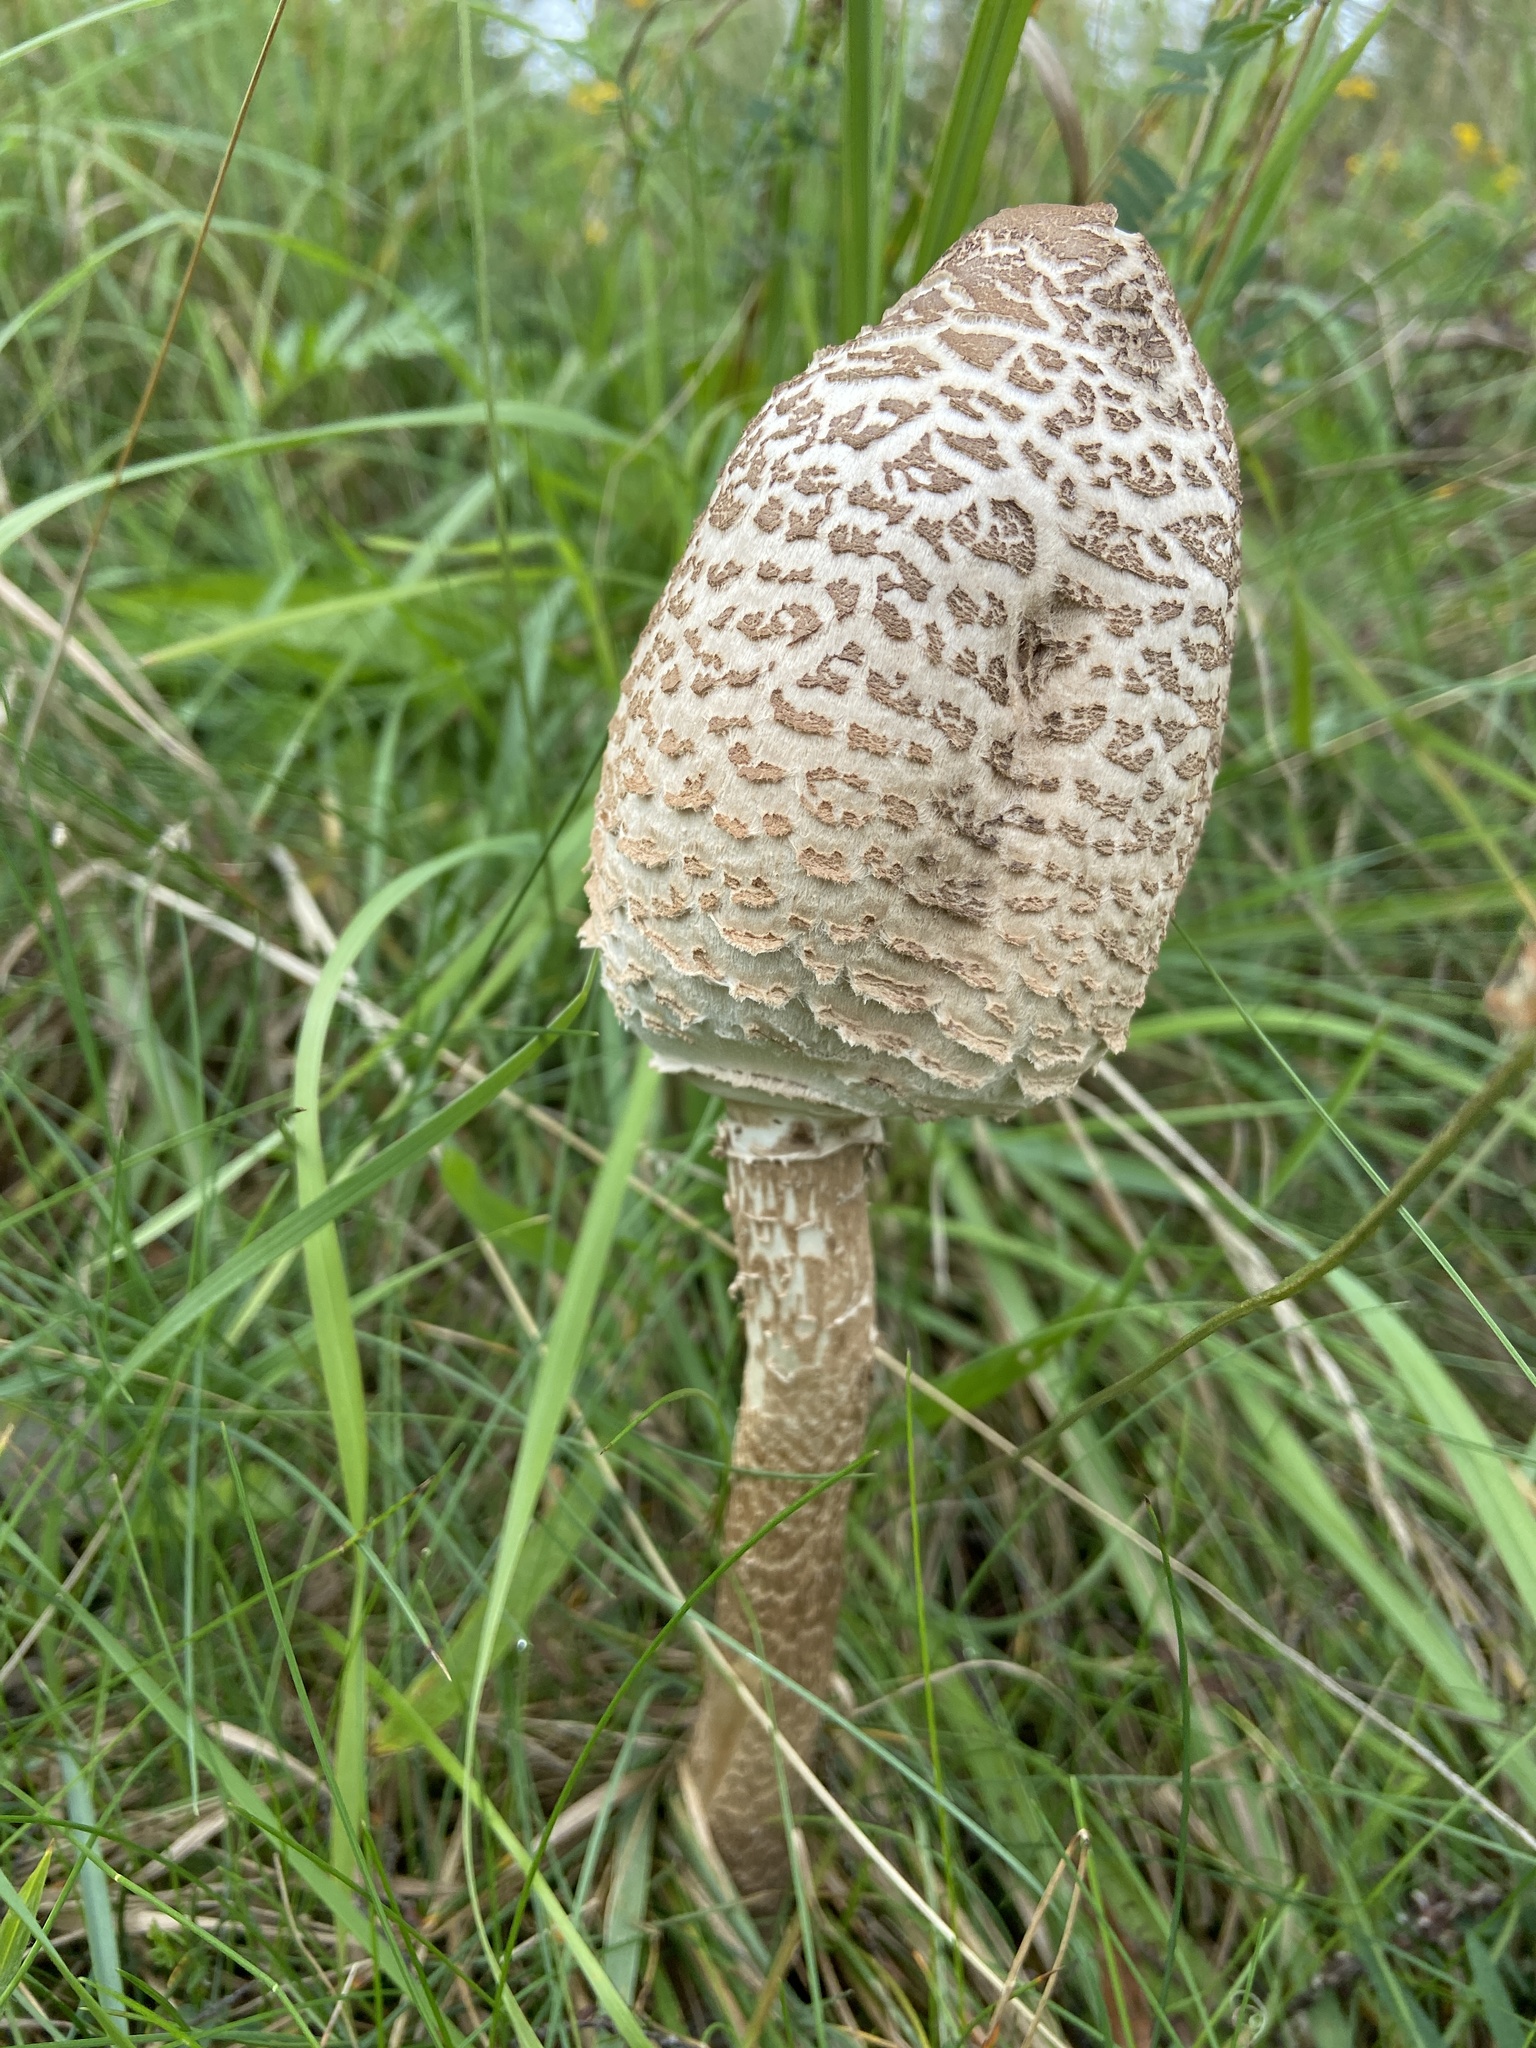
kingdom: Fungi
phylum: Basidiomycota
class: Agaricomycetes
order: Agaricales
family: Agaricaceae
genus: Macrolepiota
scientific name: Macrolepiota procera
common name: Parasol
